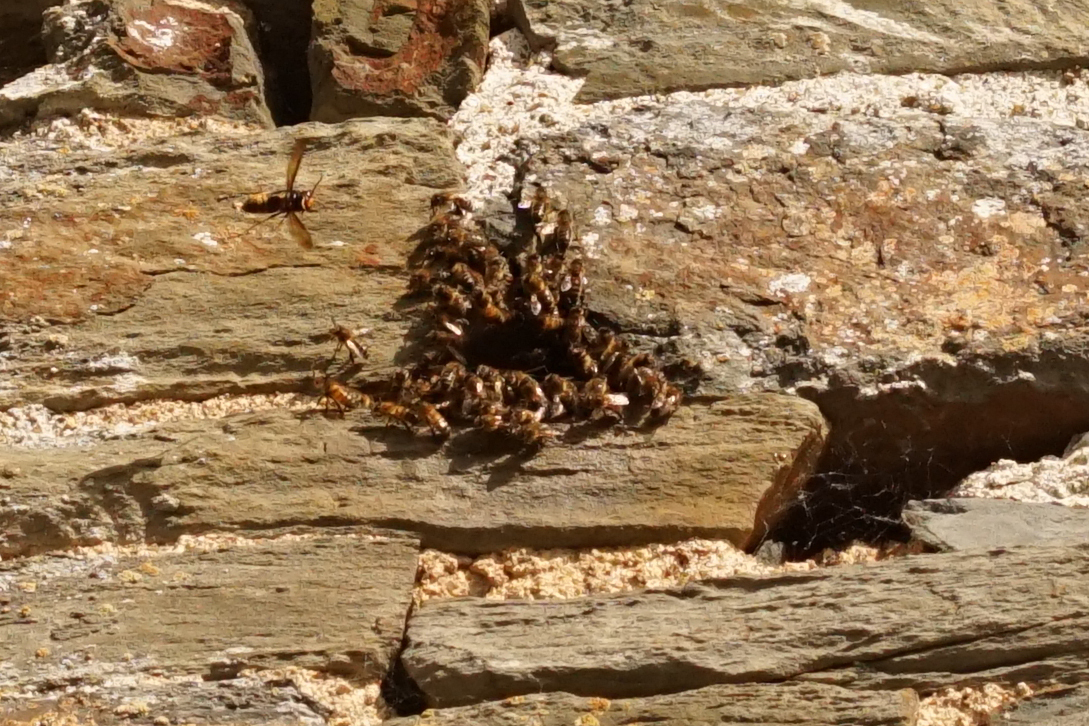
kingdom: Animalia
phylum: Arthropoda
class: Insecta
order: Hymenoptera
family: Apidae
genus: Apis
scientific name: Apis mellifera
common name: Honey bee
